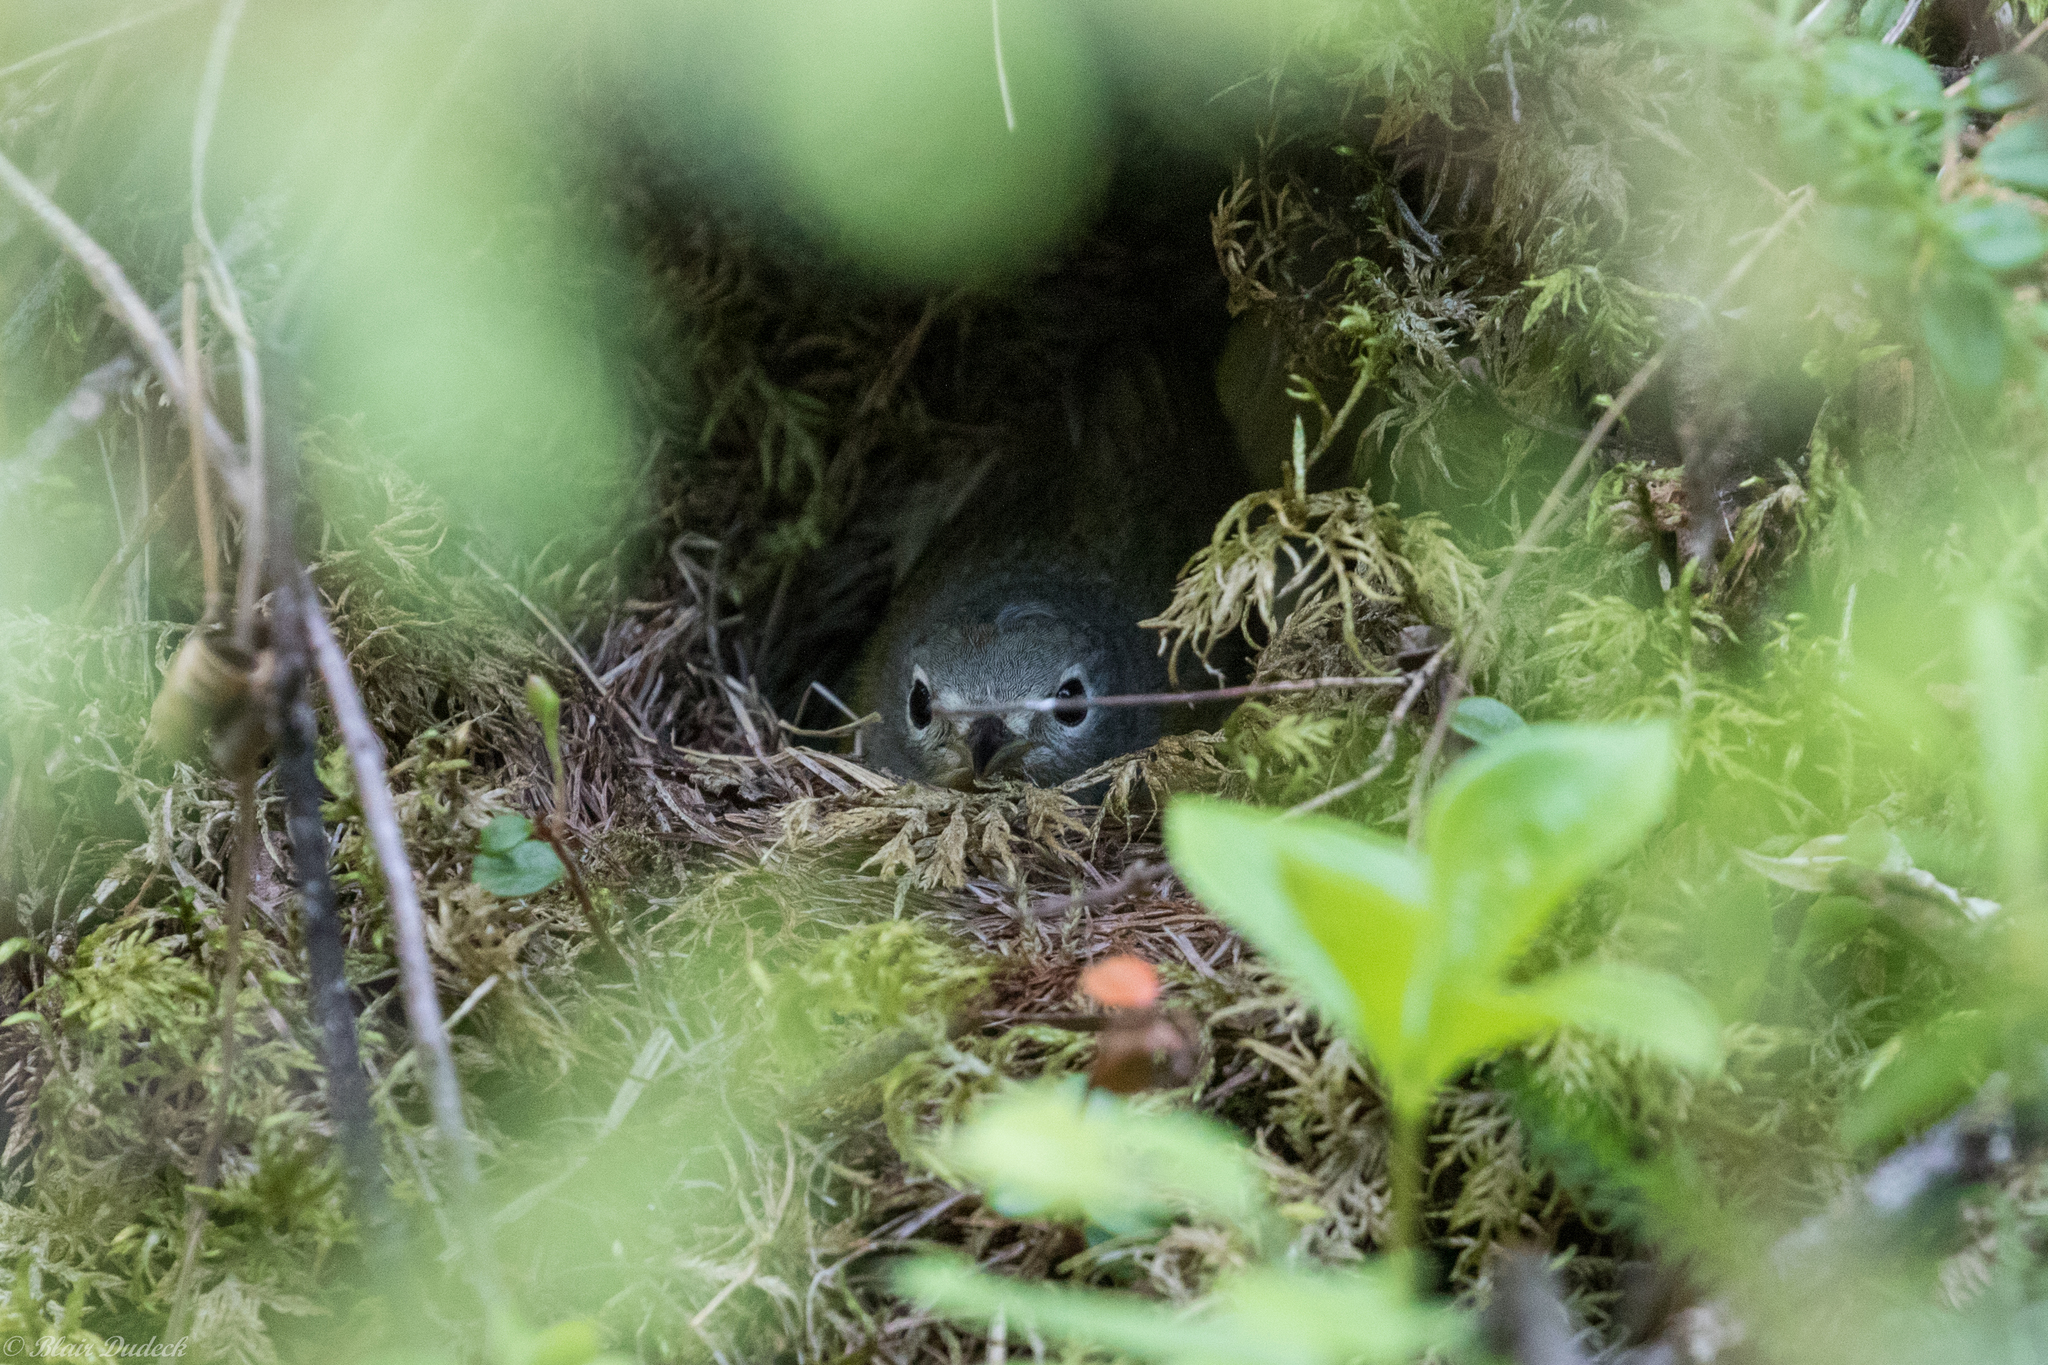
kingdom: Animalia
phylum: Chordata
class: Aves
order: Passeriformes
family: Parulidae
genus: Leiothlypis
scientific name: Leiothlypis ruficapilla
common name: Nashville warbler
